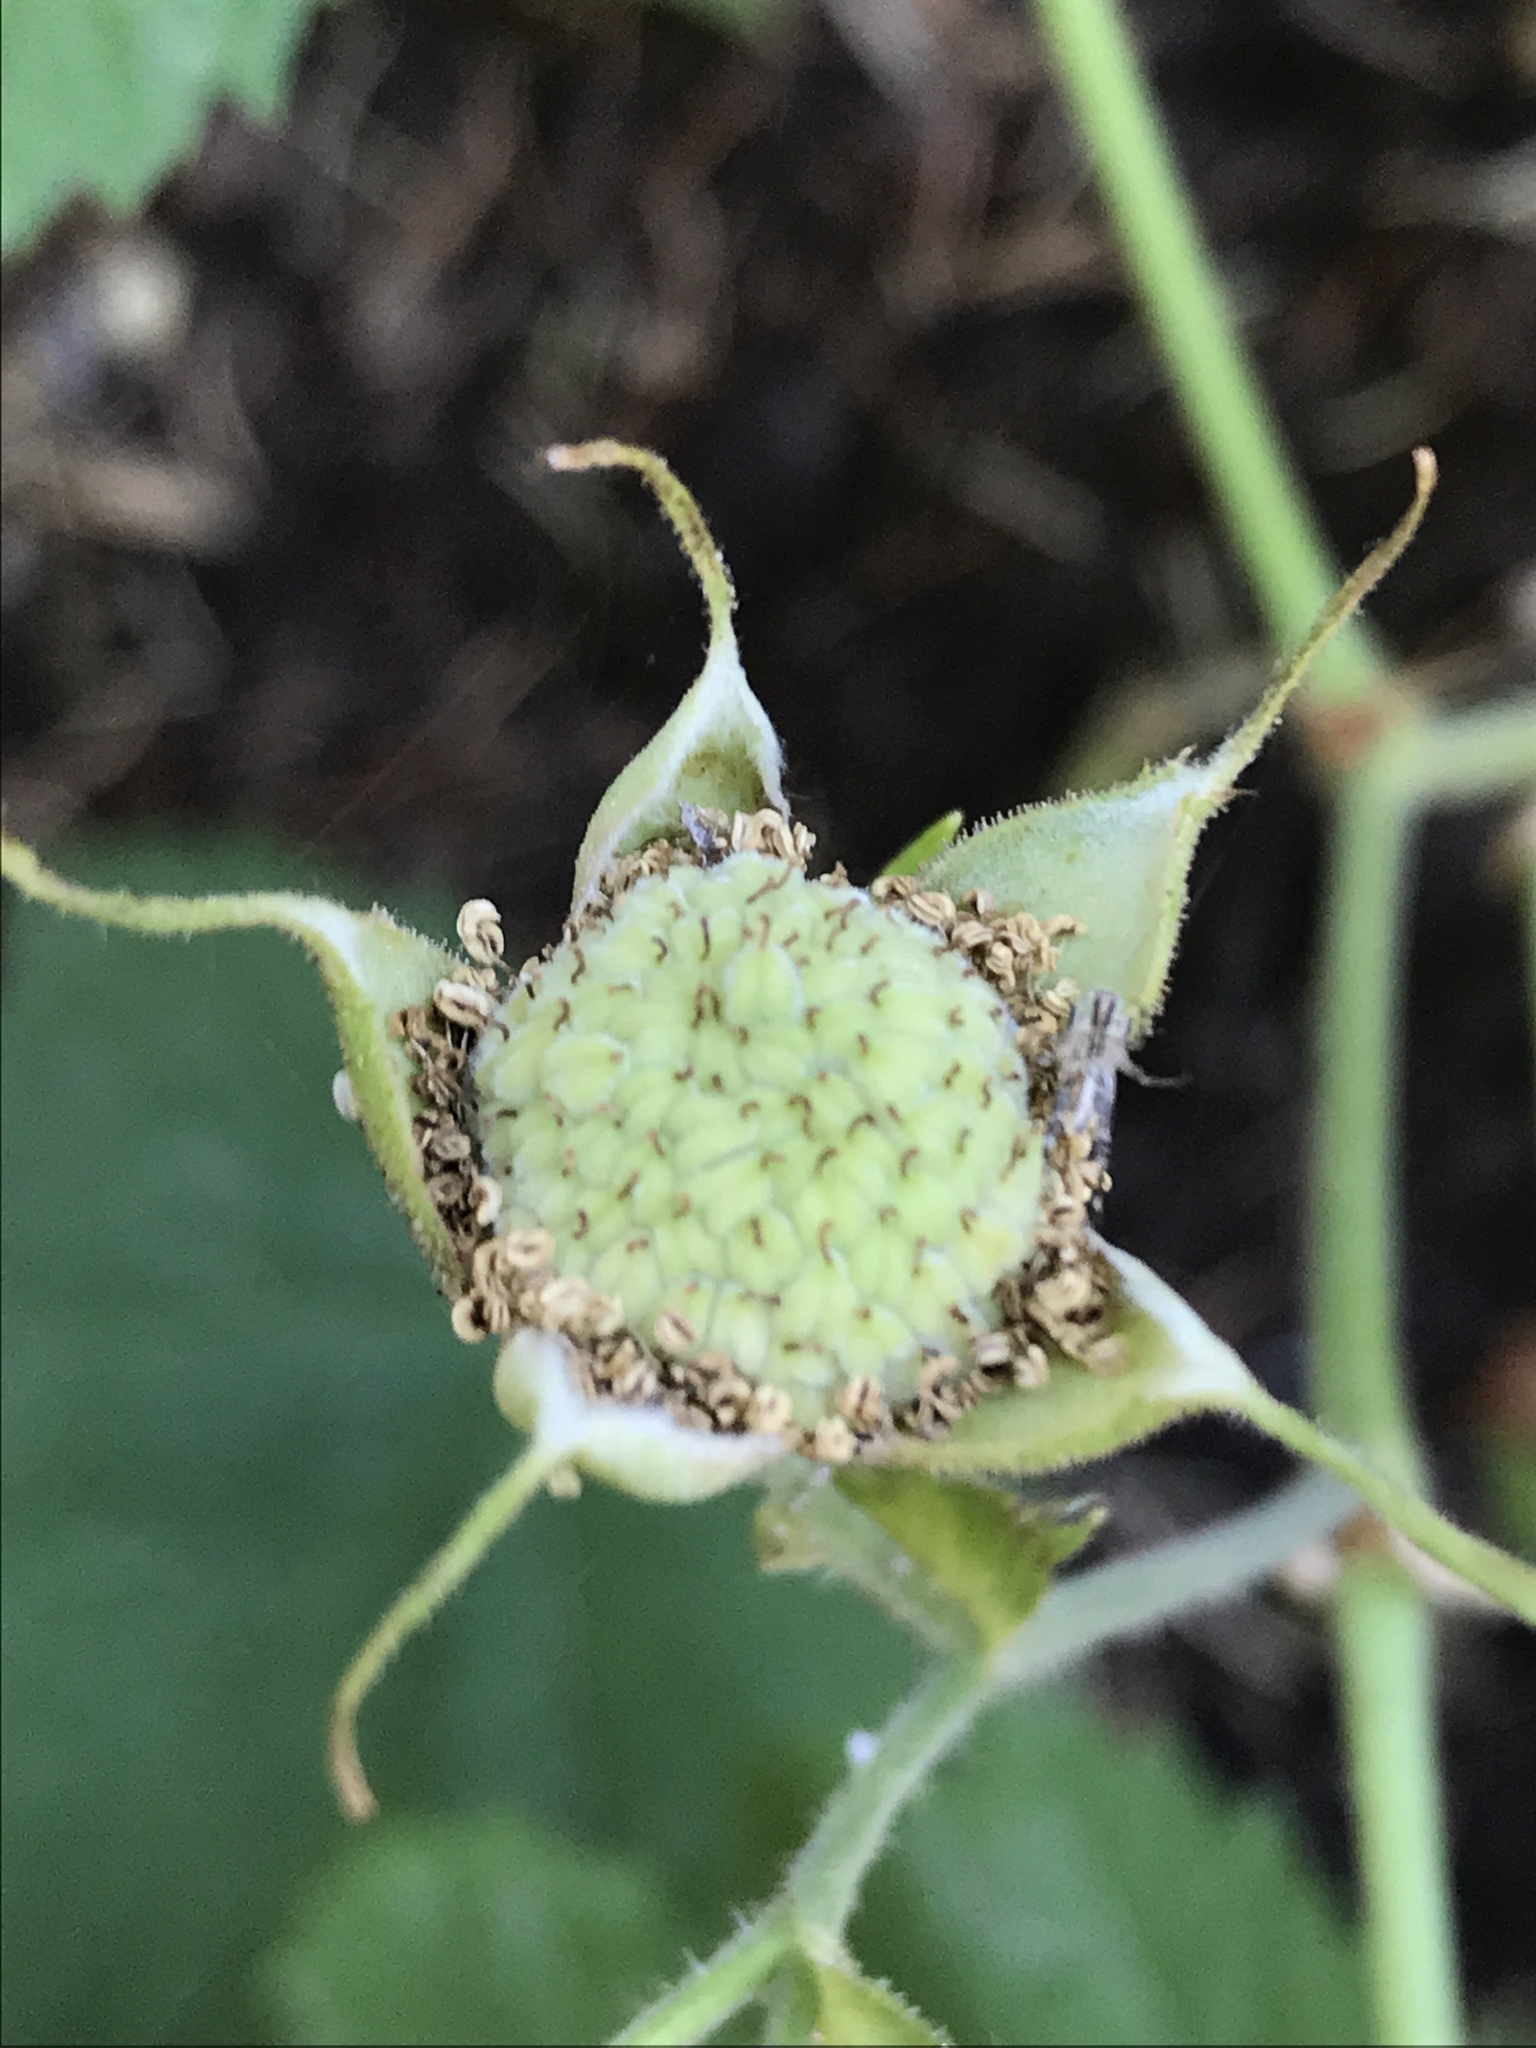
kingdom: Plantae
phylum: Tracheophyta
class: Magnoliopsida
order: Rosales
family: Rosaceae
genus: Rubus
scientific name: Rubus parviflorus
